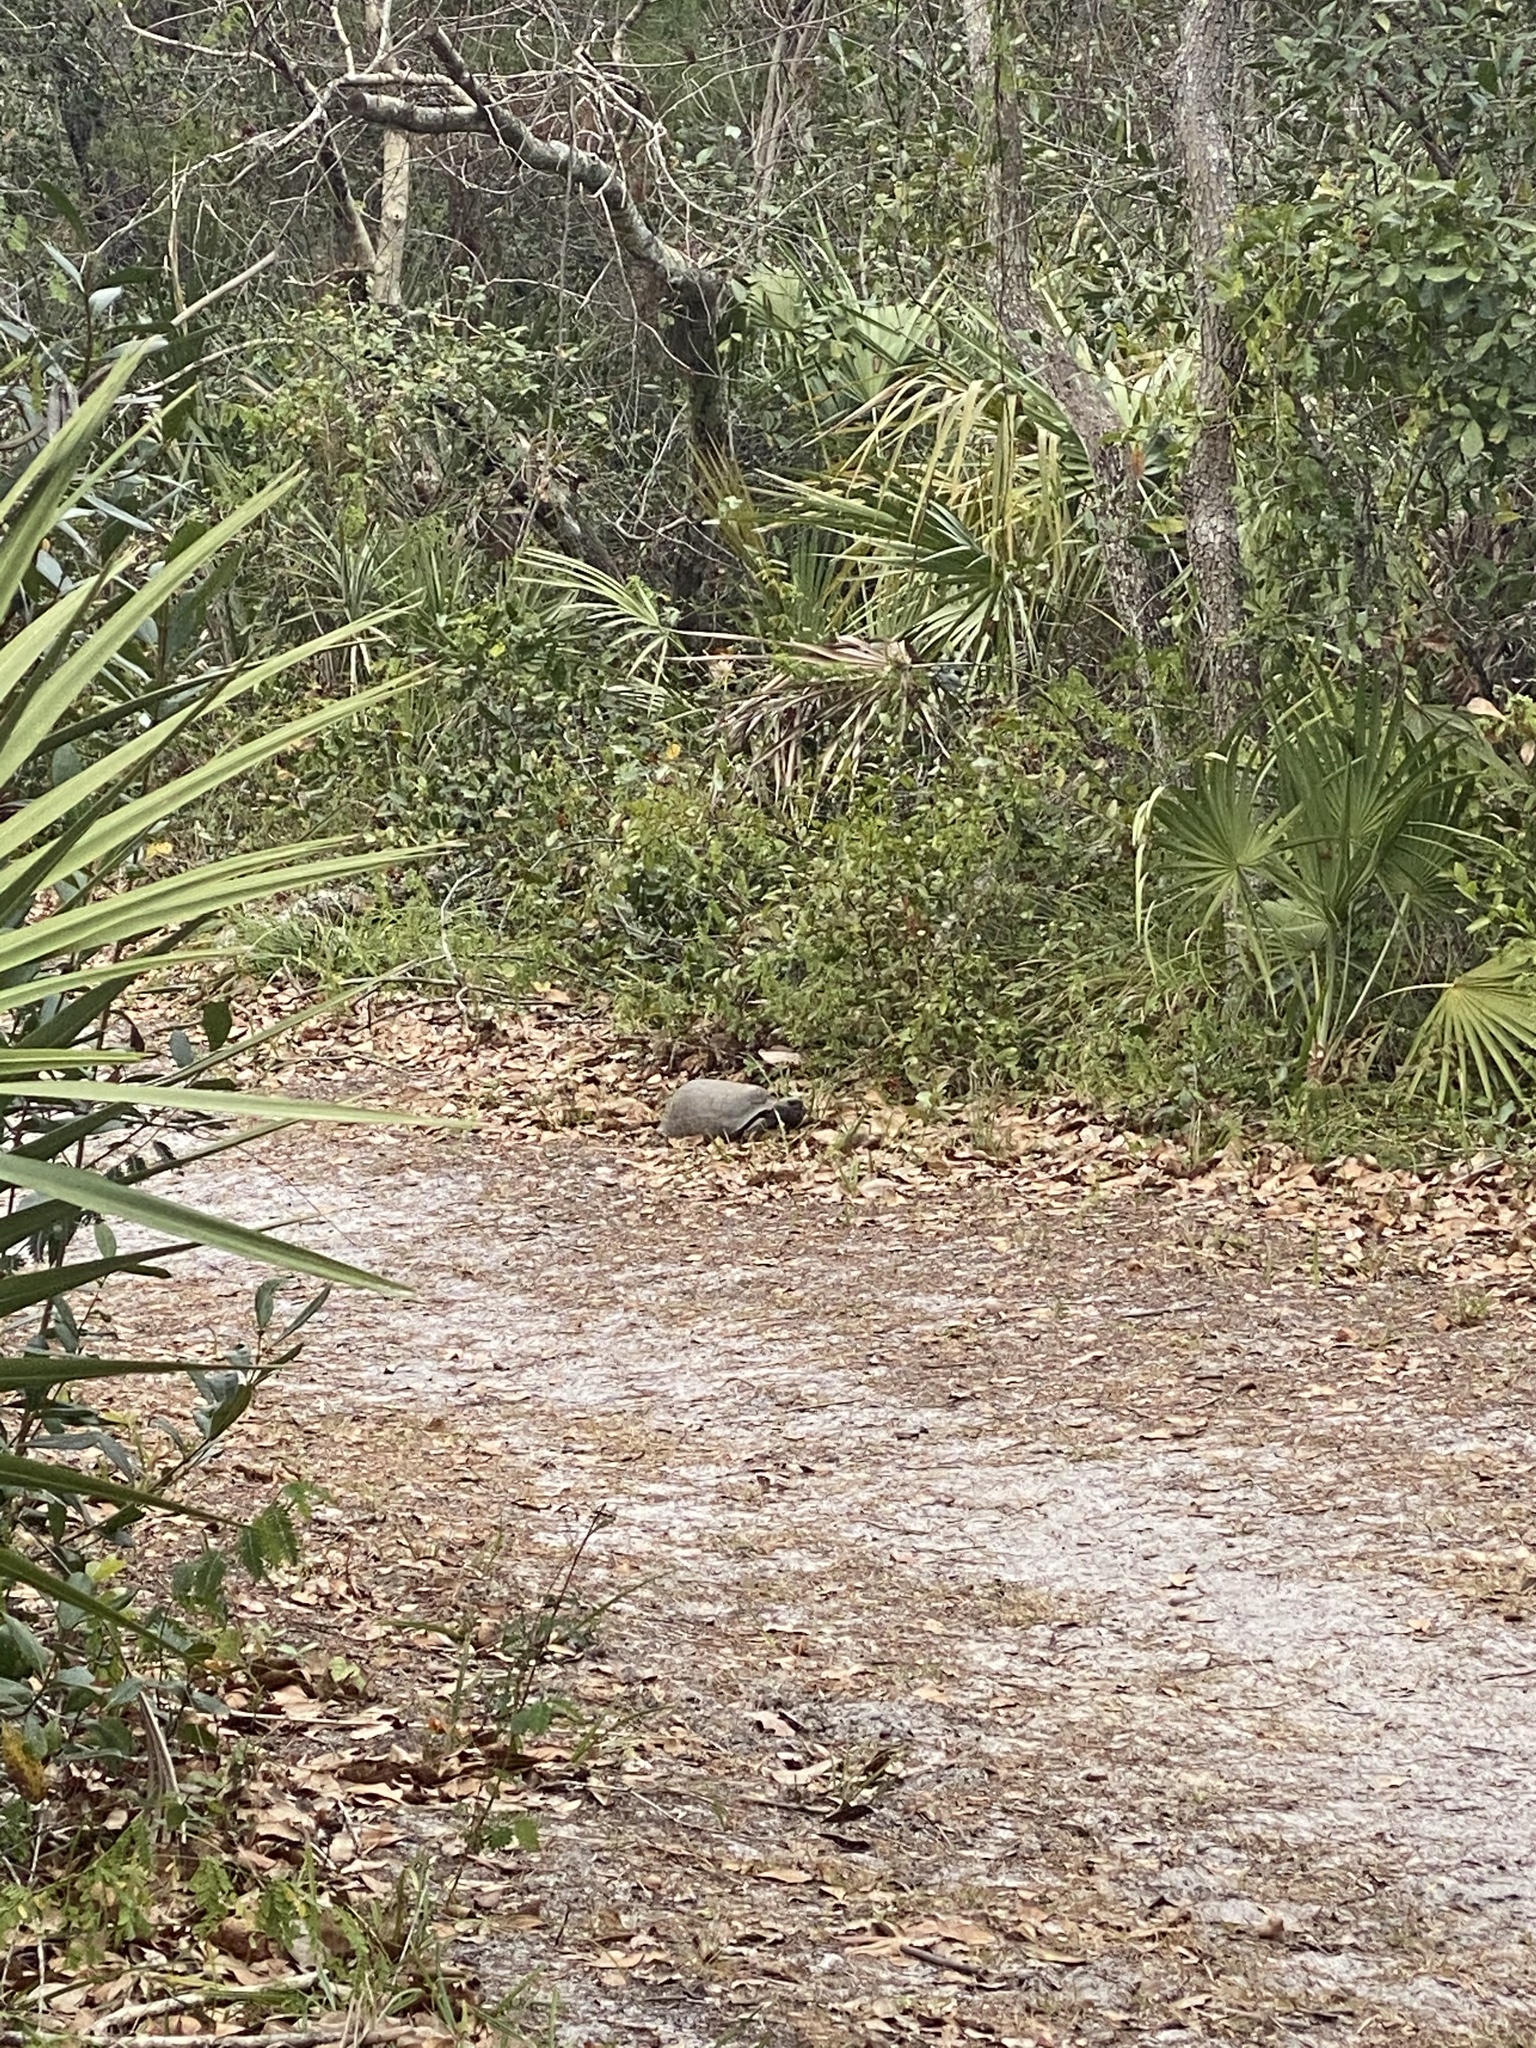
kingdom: Animalia
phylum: Chordata
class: Testudines
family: Testudinidae
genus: Gopherus
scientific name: Gopherus polyphemus
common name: Florida gopher tortoise
